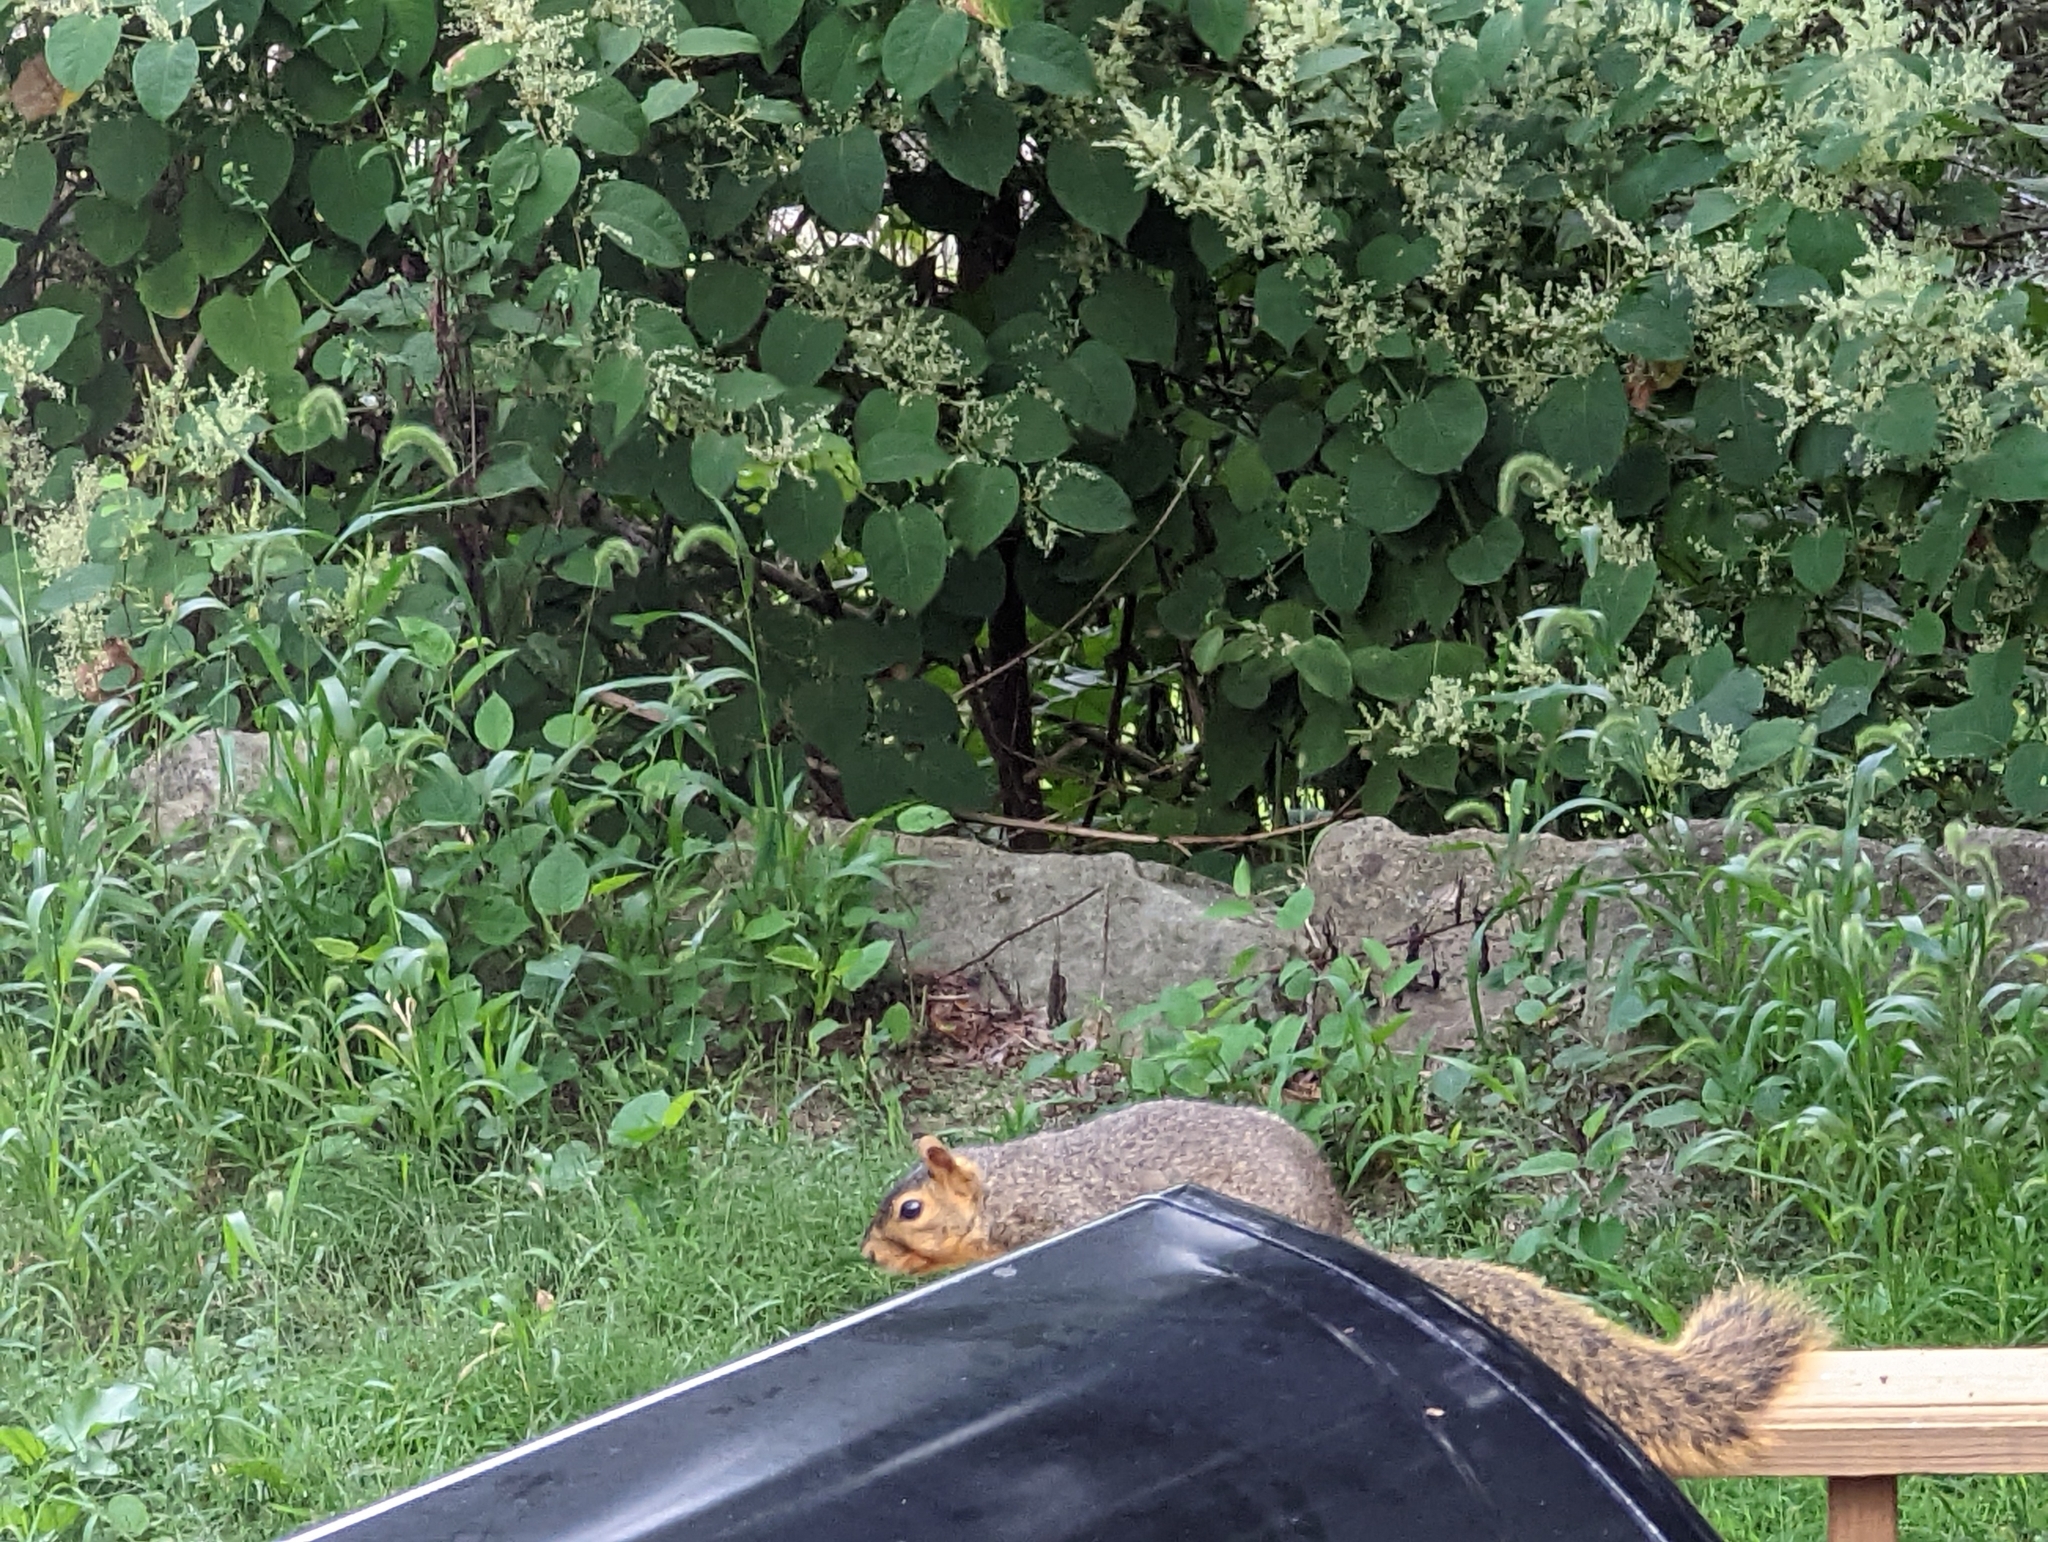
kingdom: Animalia
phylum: Chordata
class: Mammalia
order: Rodentia
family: Sciuridae
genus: Sciurus
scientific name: Sciurus niger
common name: Fox squirrel
